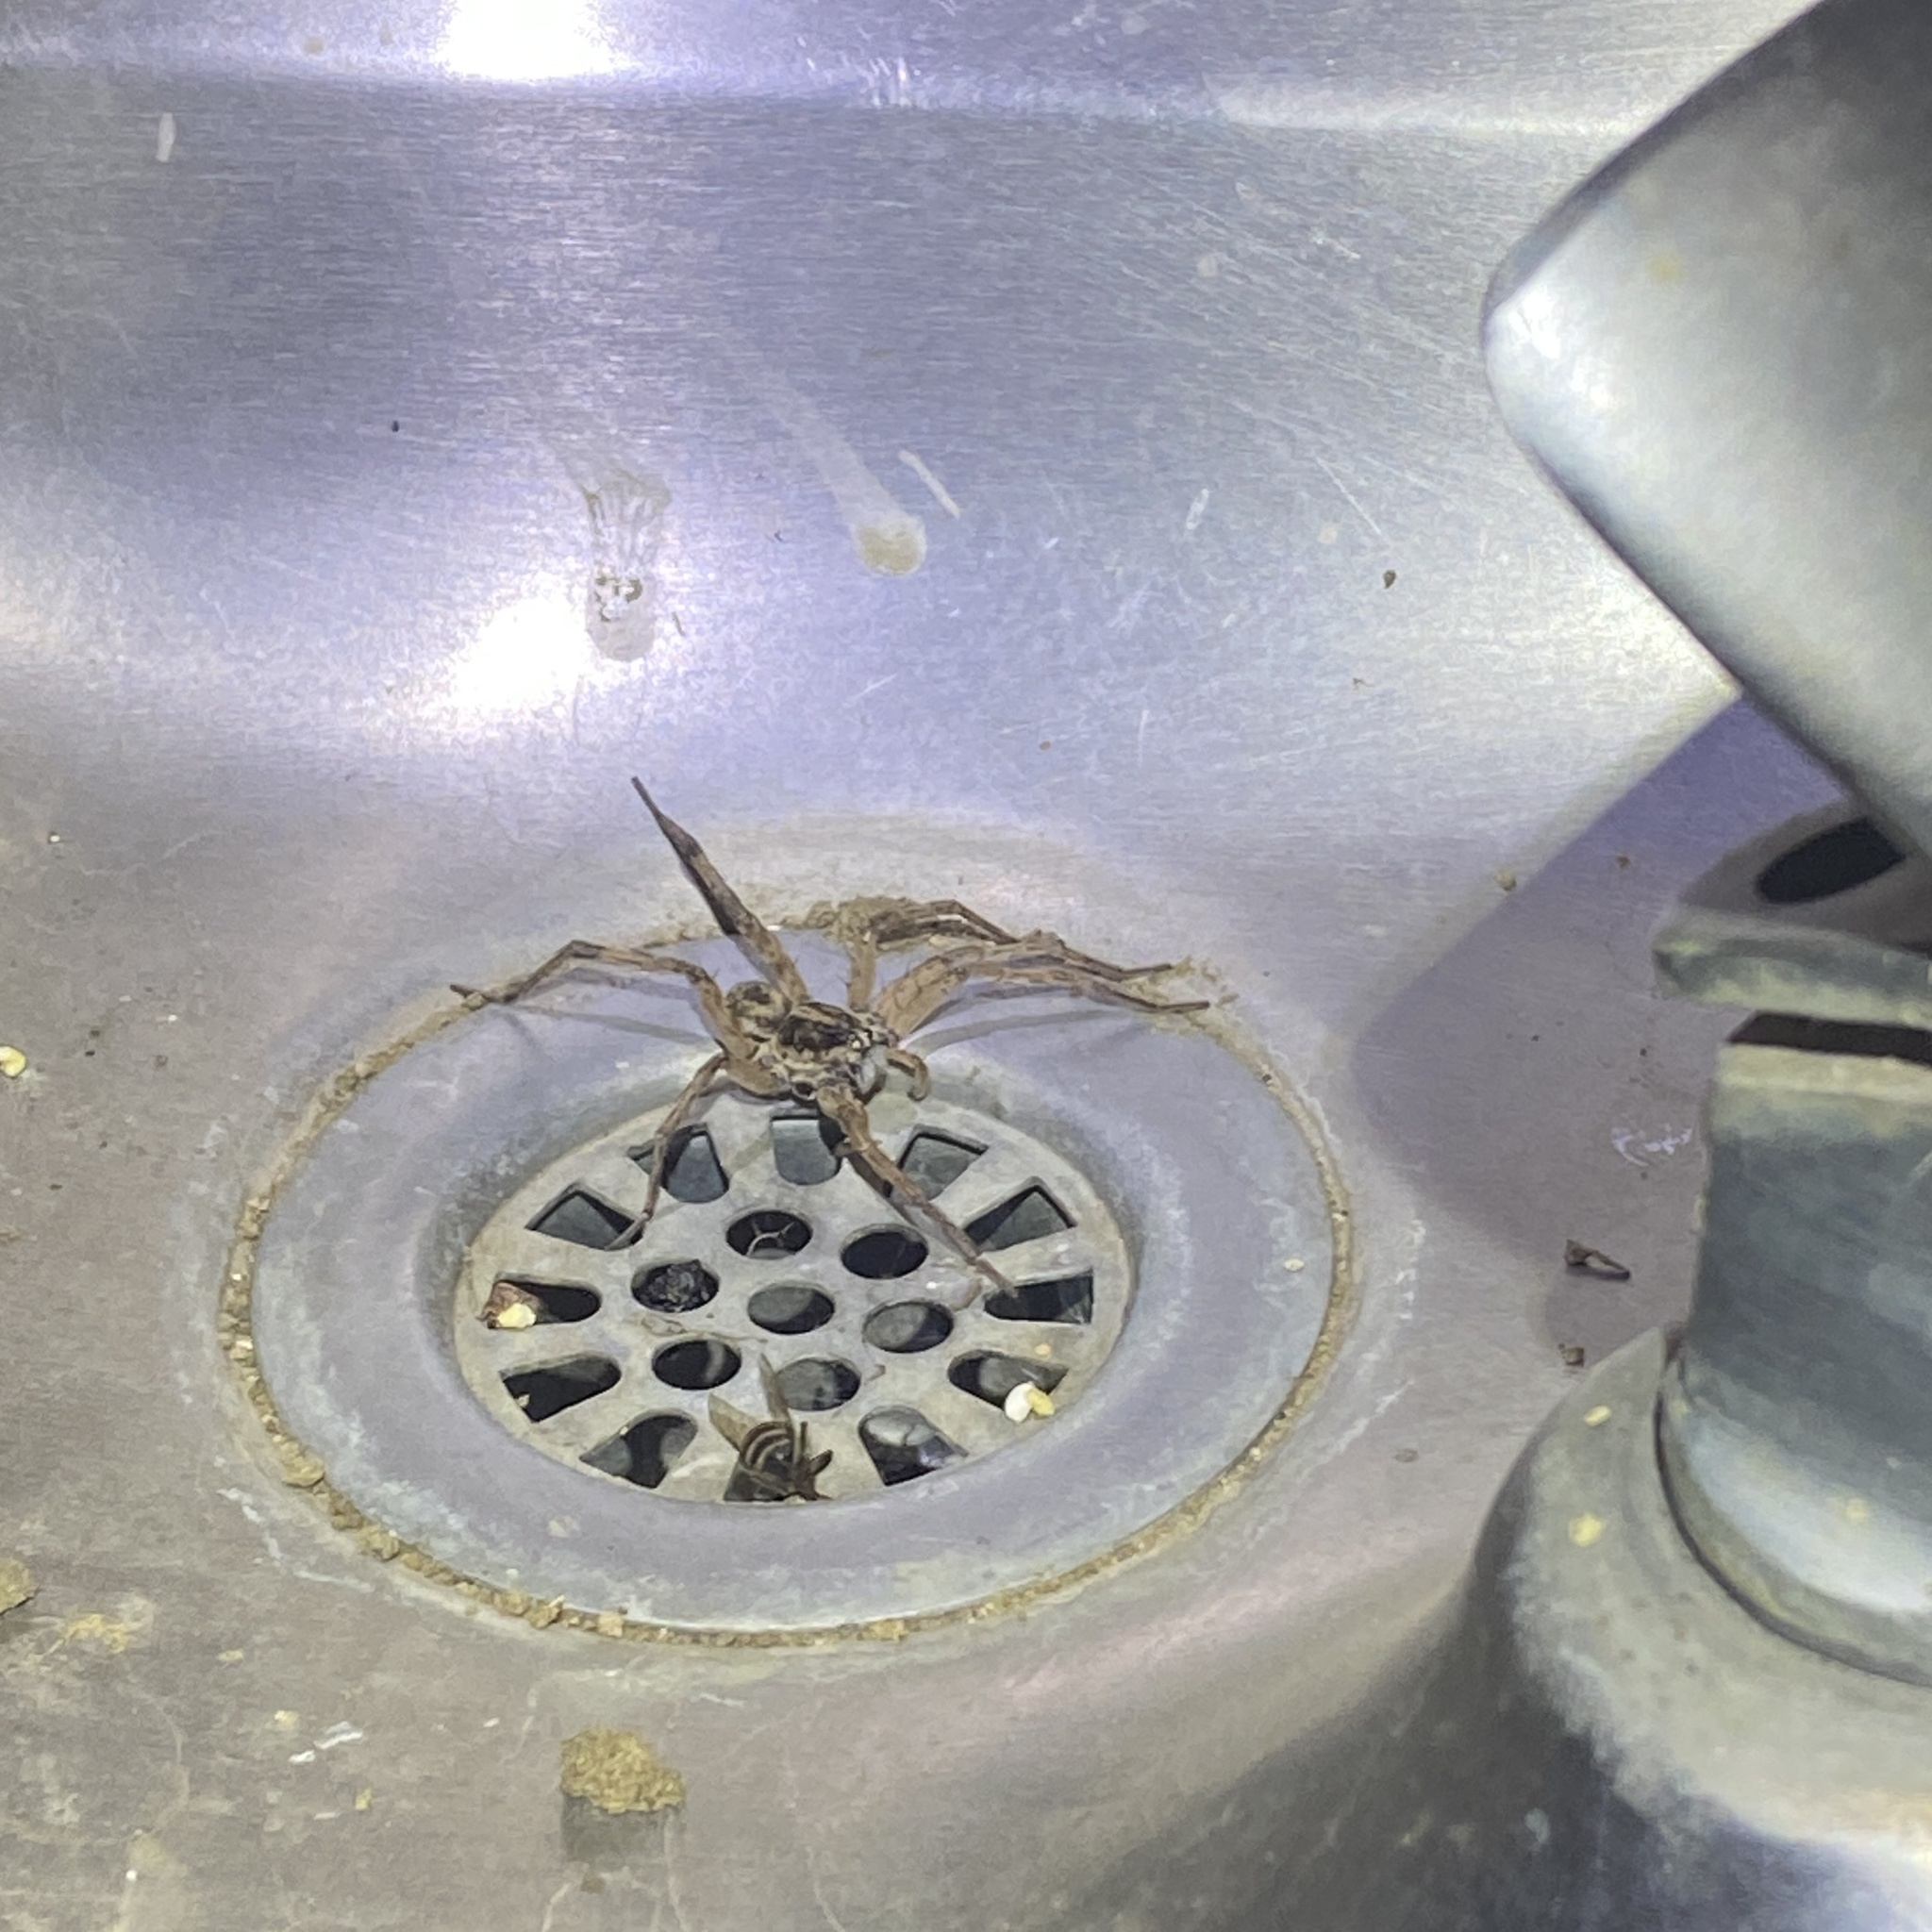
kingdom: Animalia
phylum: Arthropoda
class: Arachnida
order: Araneae
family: Lycosidae
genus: Hogna
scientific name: Hogna antelucana
